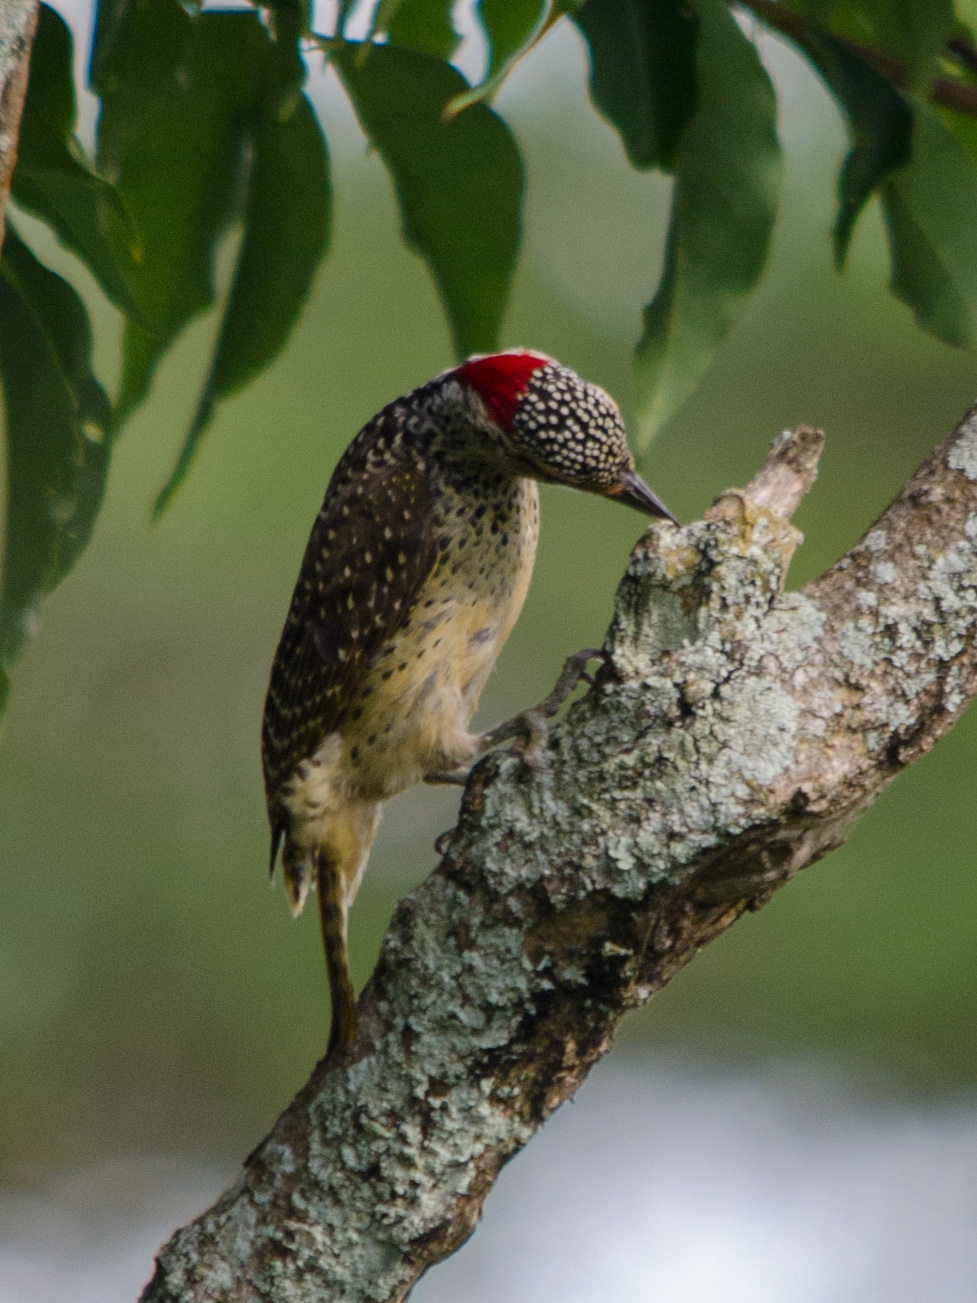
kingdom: Animalia
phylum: Chordata
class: Aves
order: Piciformes
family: Picidae
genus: Campethera
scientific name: Campethera nubica
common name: Nubian woodpecker
